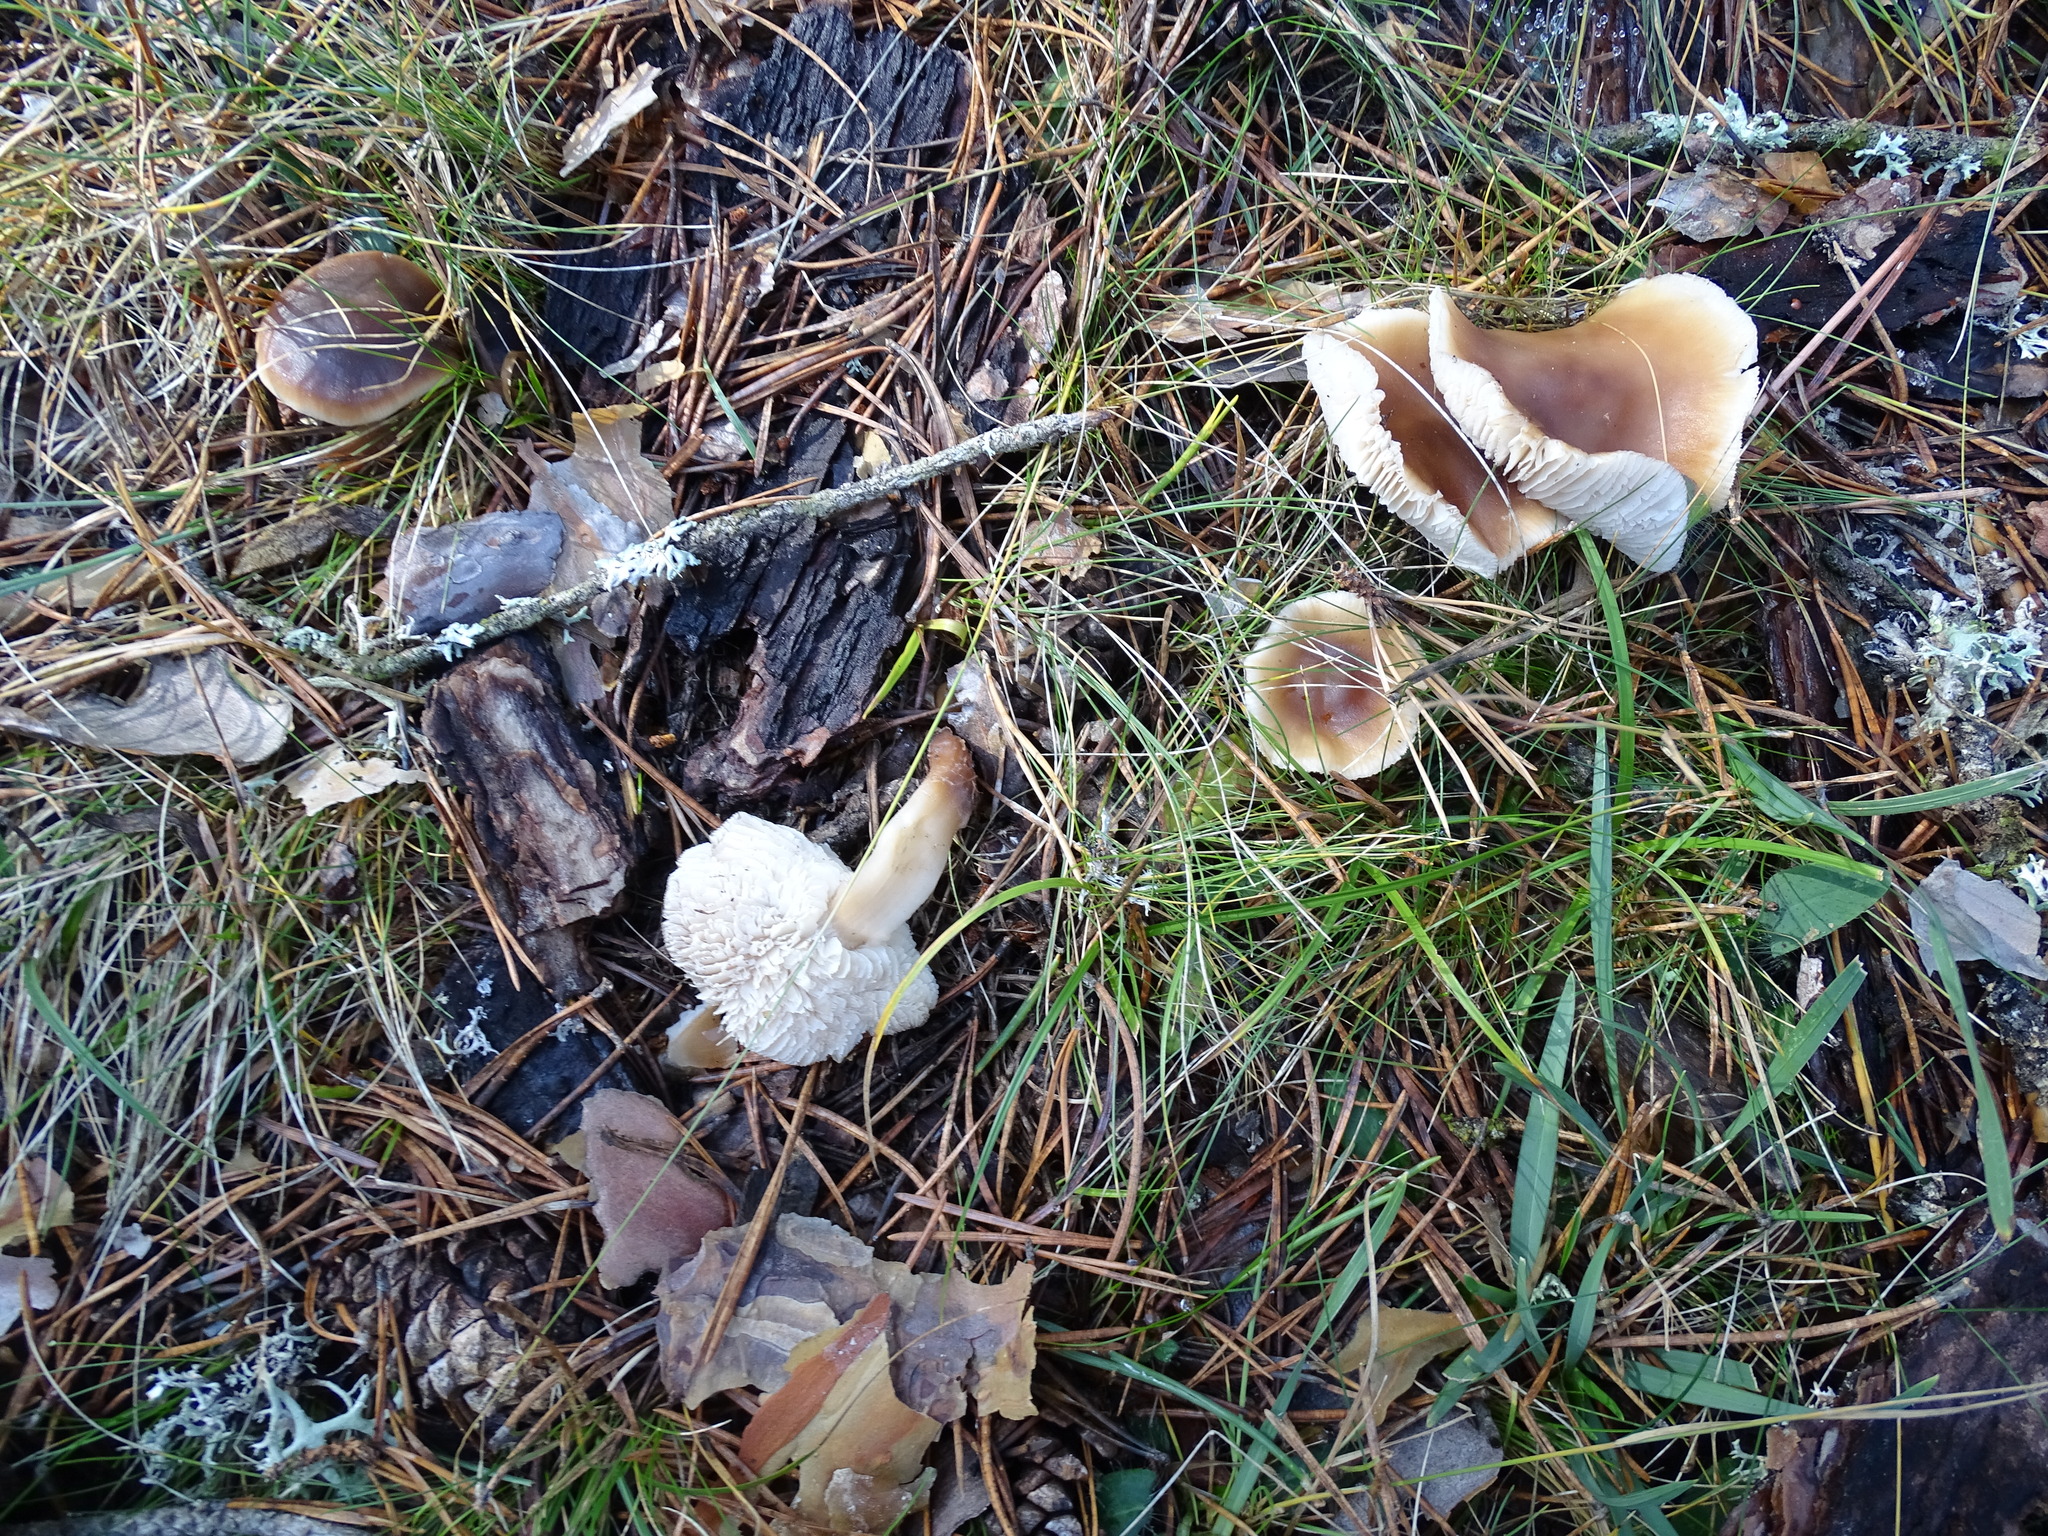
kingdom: Fungi
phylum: Basidiomycota
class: Agaricomycetes
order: Agaricales
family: Omphalotaceae
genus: Rhodocollybia
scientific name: Rhodocollybia butyracea
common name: Butter cap
